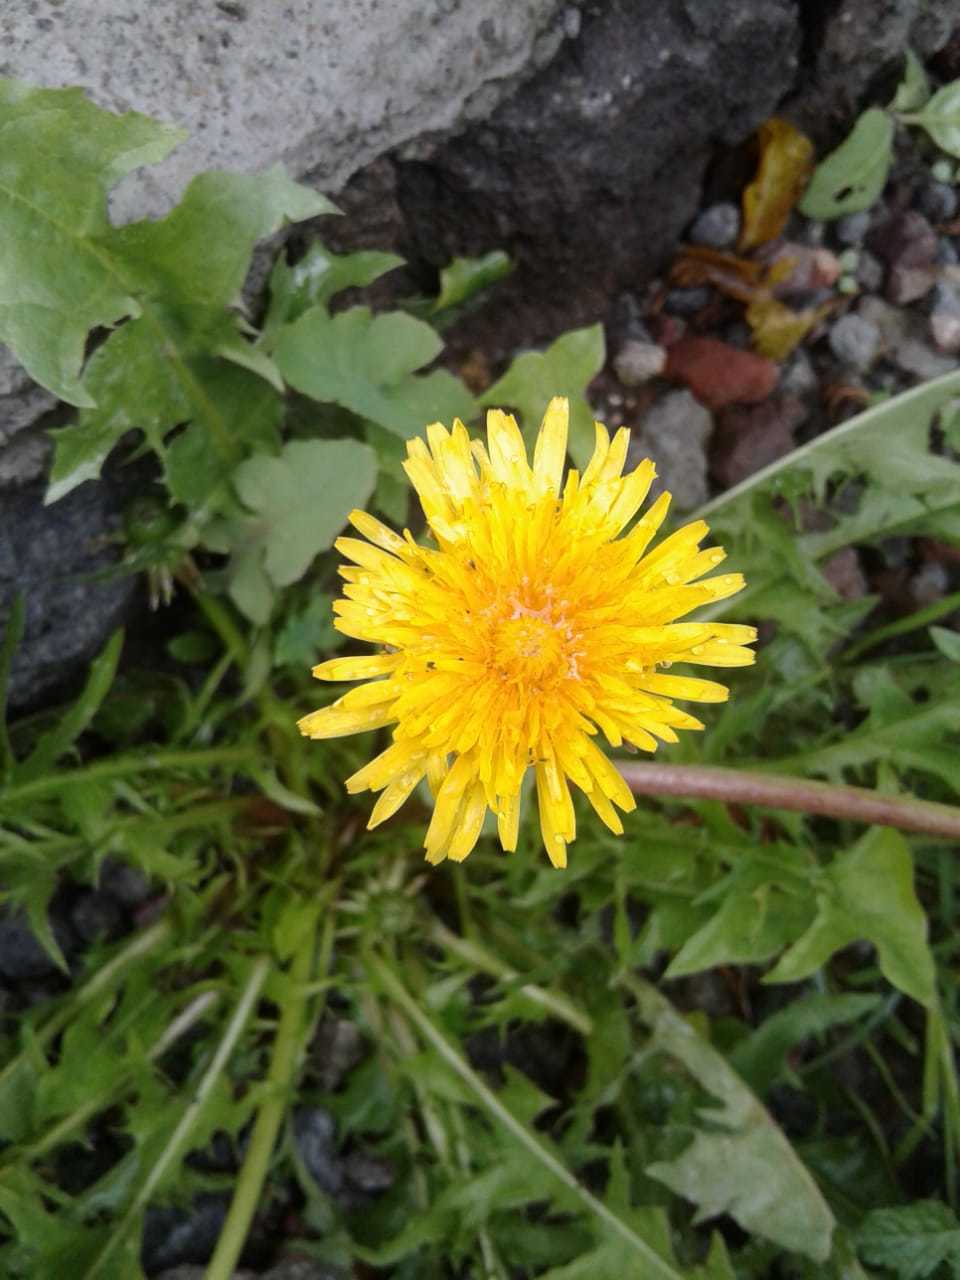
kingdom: Plantae
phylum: Tracheophyta
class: Magnoliopsida
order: Asterales
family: Asteraceae
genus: Taraxacum
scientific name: Taraxacum officinale
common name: Common dandelion
